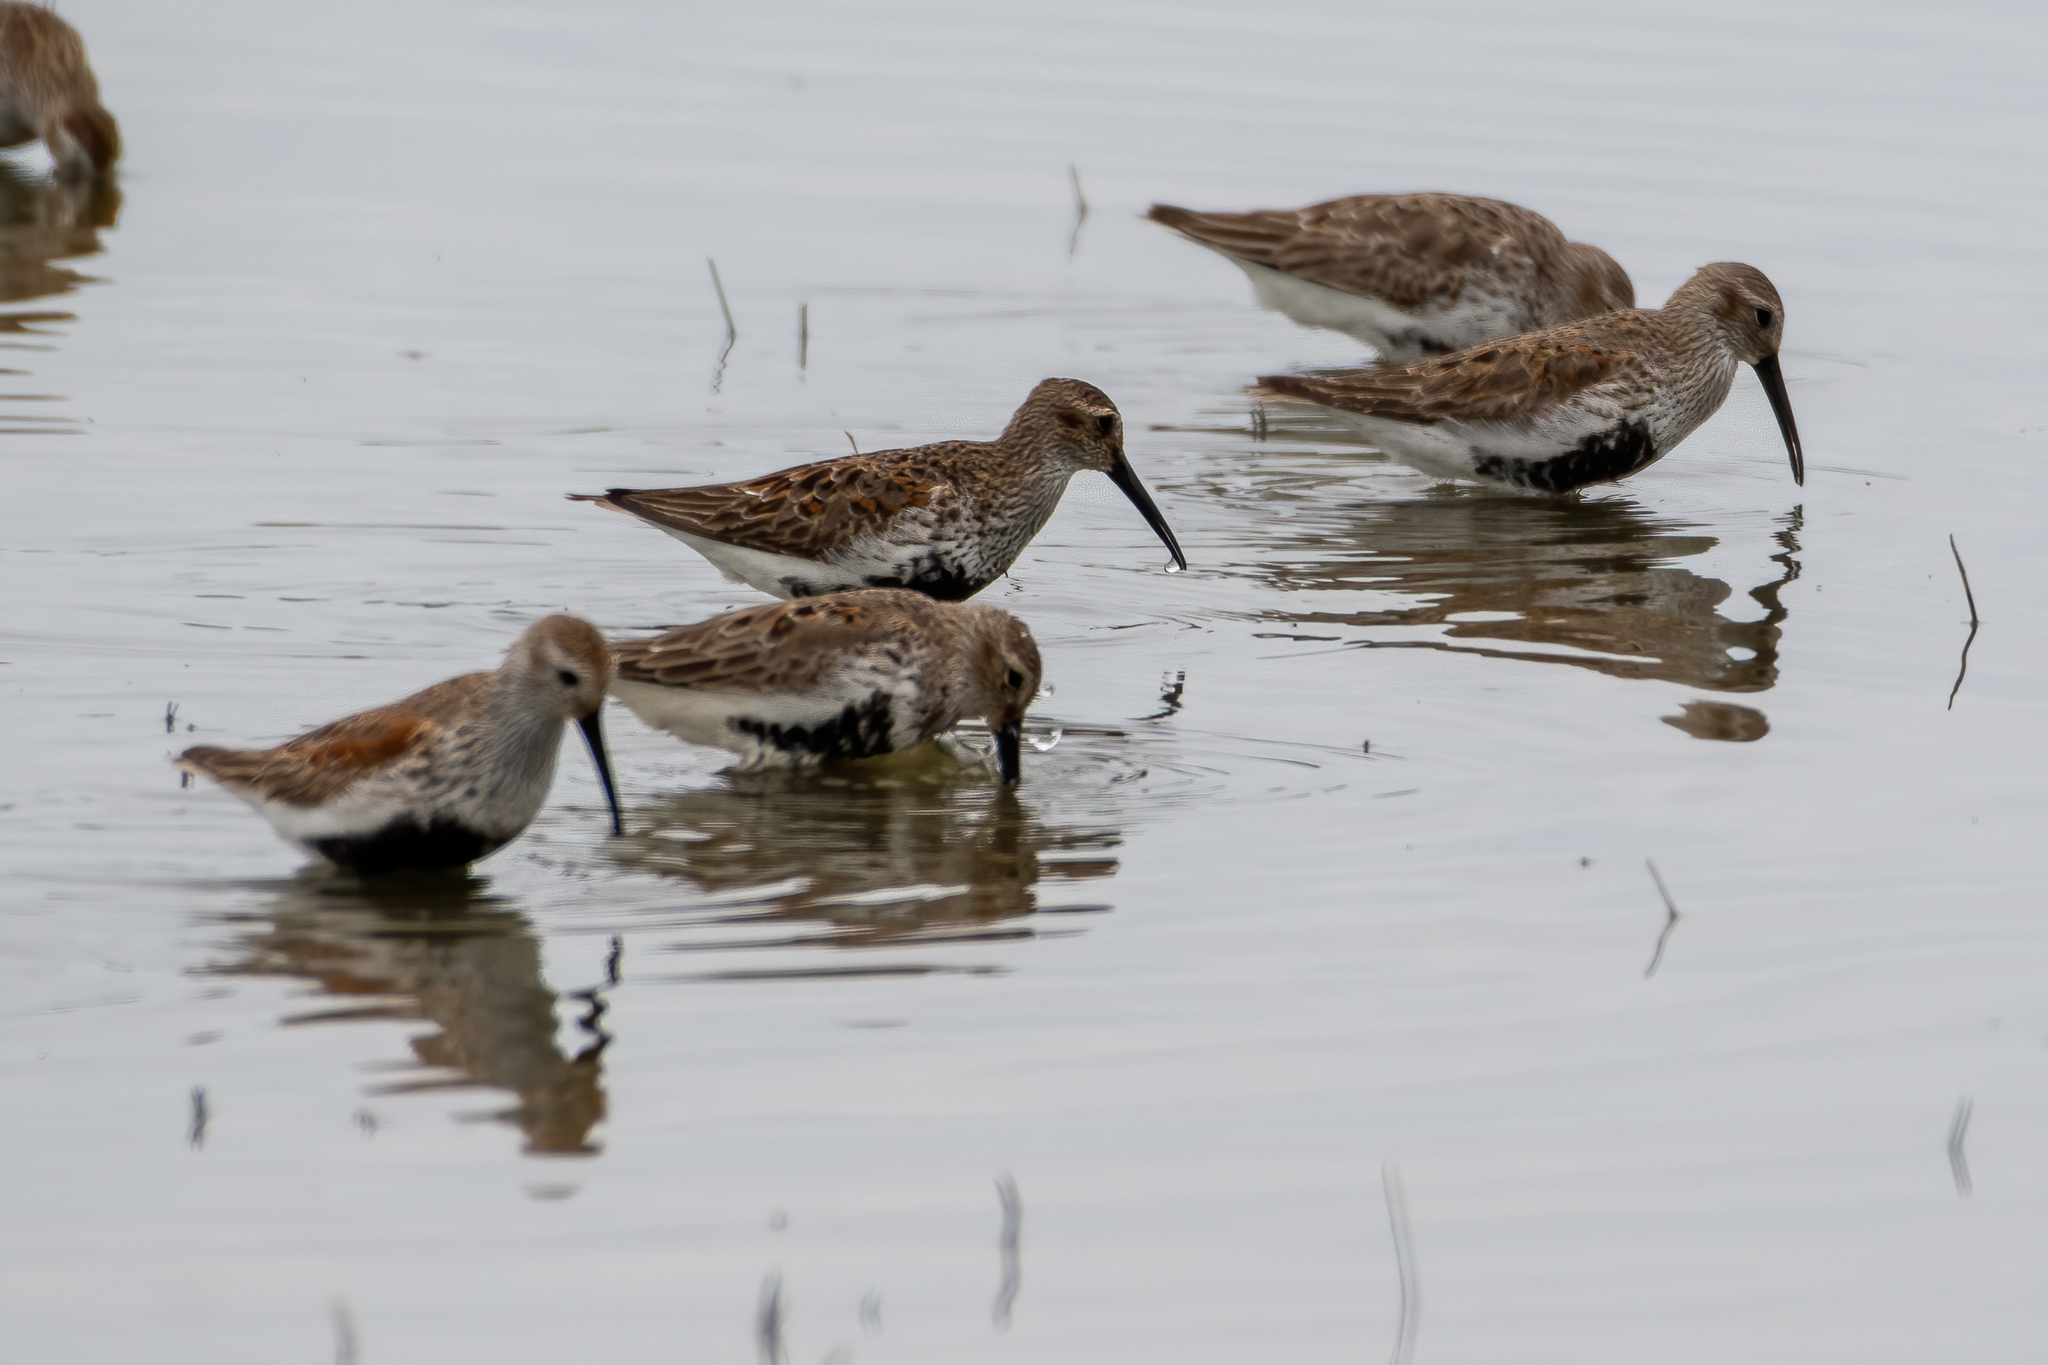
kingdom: Animalia
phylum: Chordata
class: Aves
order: Charadriiformes
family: Scolopacidae
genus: Calidris
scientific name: Calidris alpina
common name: Dunlin
